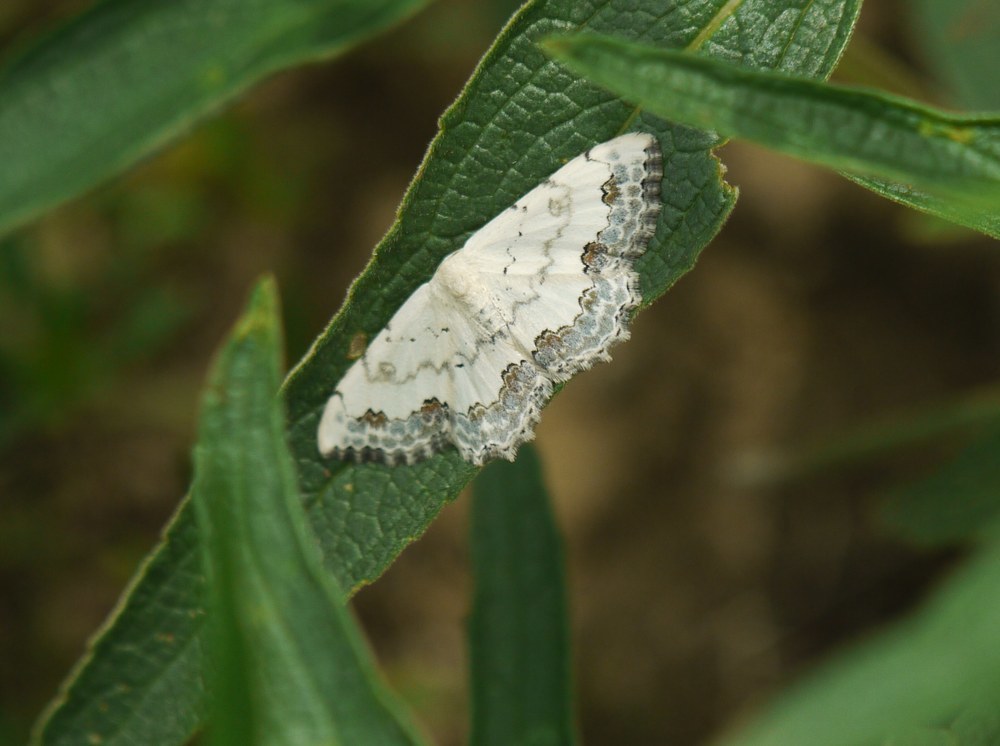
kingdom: Animalia
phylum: Arthropoda
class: Insecta
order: Lepidoptera
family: Geometridae
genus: Scopula
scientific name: Scopula orientalis
